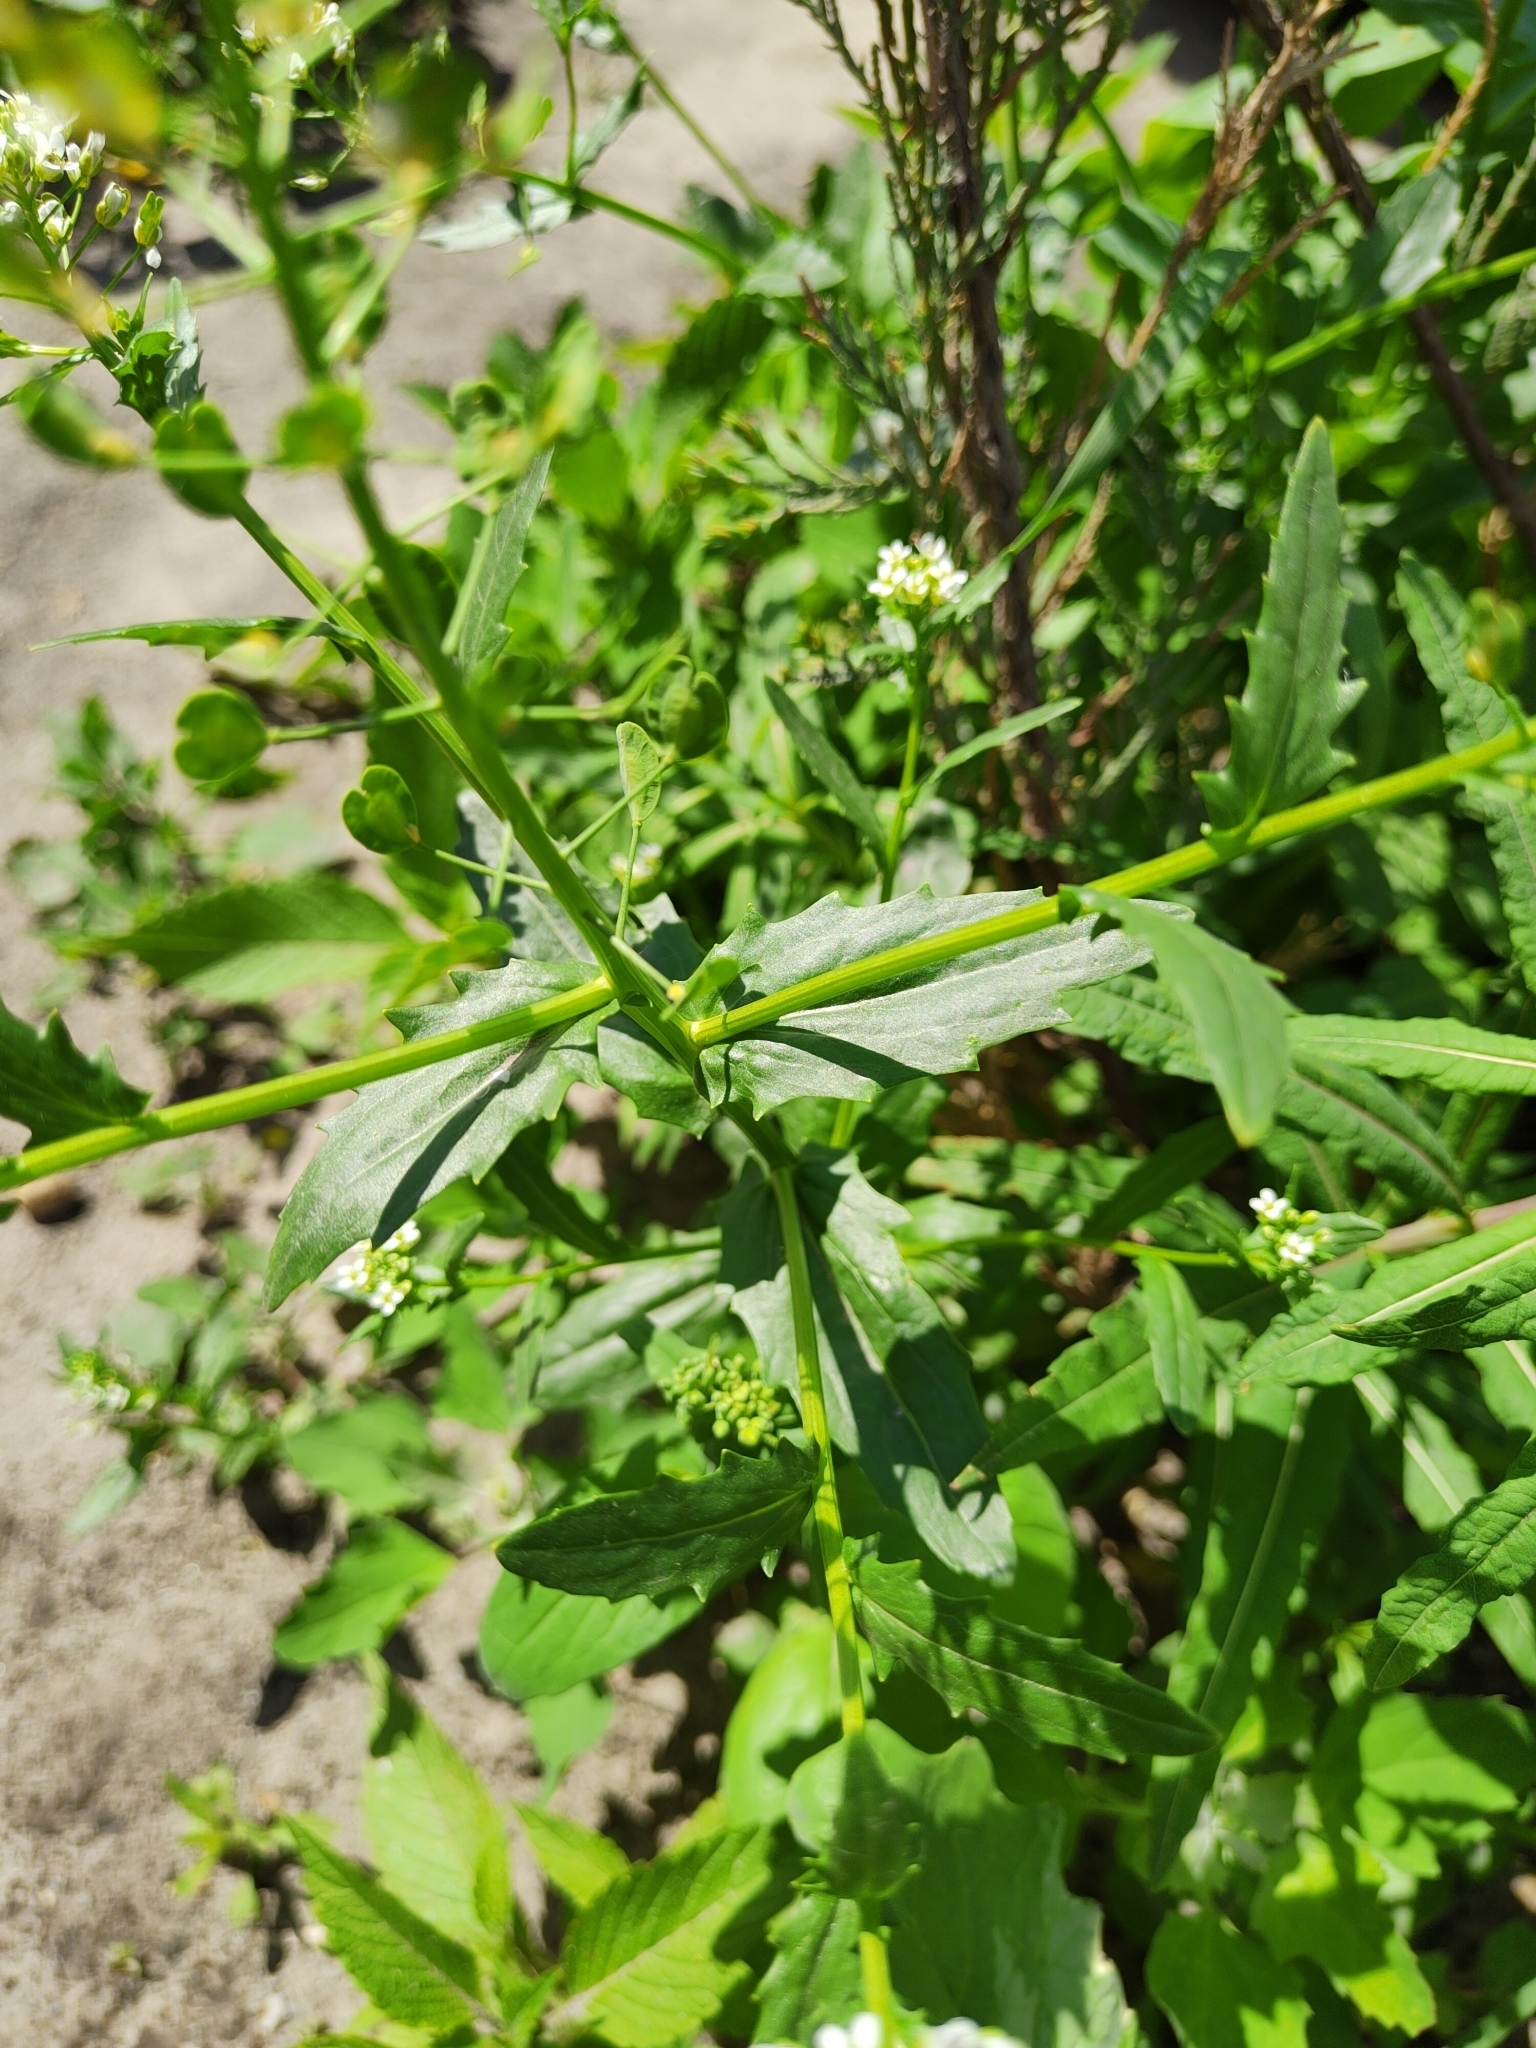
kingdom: Plantae
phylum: Tracheophyta
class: Magnoliopsida
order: Brassicales
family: Brassicaceae
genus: Thlaspi
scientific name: Thlaspi arvense
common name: Field pennycress
